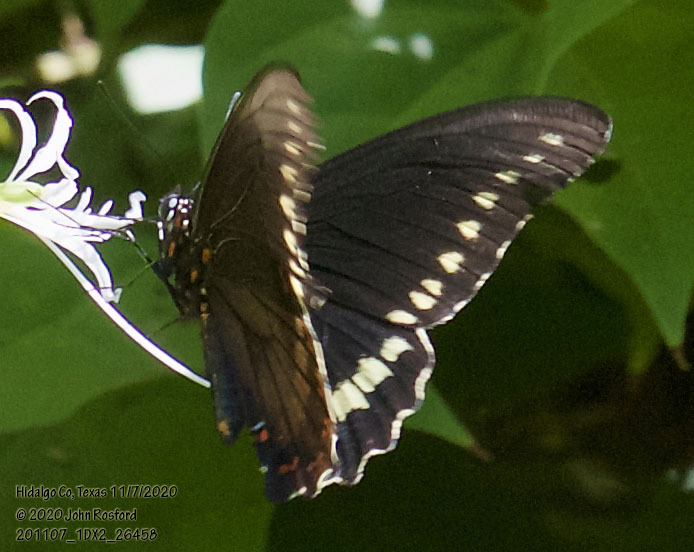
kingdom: Animalia
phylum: Arthropoda
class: Insecta
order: Lepidoptera
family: Papilionidae
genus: Battus
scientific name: Battus polydamas
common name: Polydamas swallowtail
